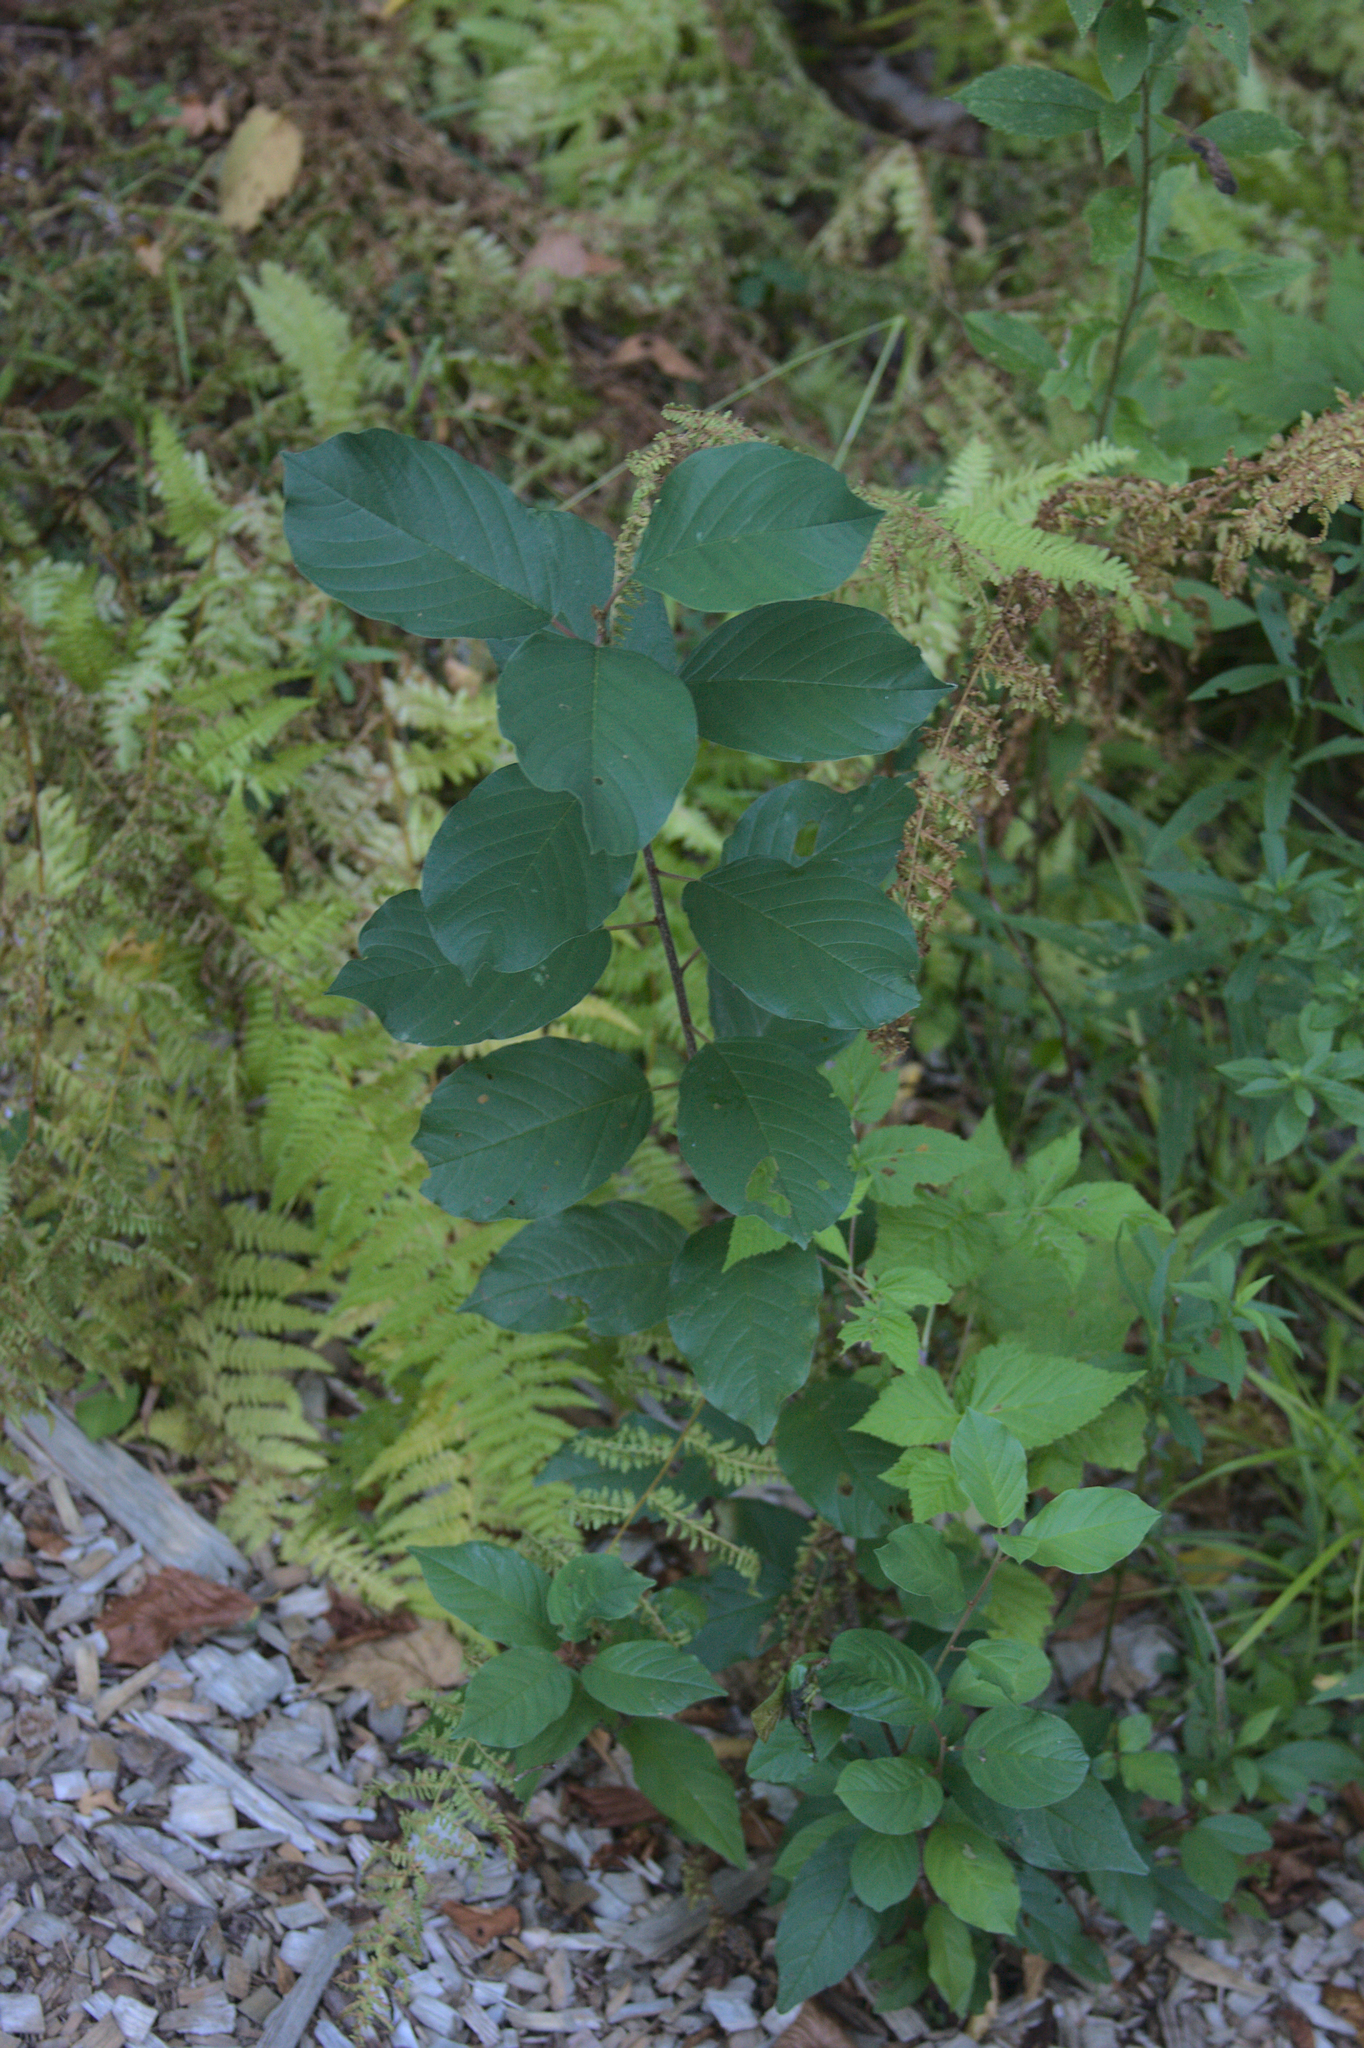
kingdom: Plantae
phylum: Tracheophyta
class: Magnoliopsida
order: Rosales
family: Rhamnaceae
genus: Frangula
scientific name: Frangula alnus
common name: Alder buckthorn
